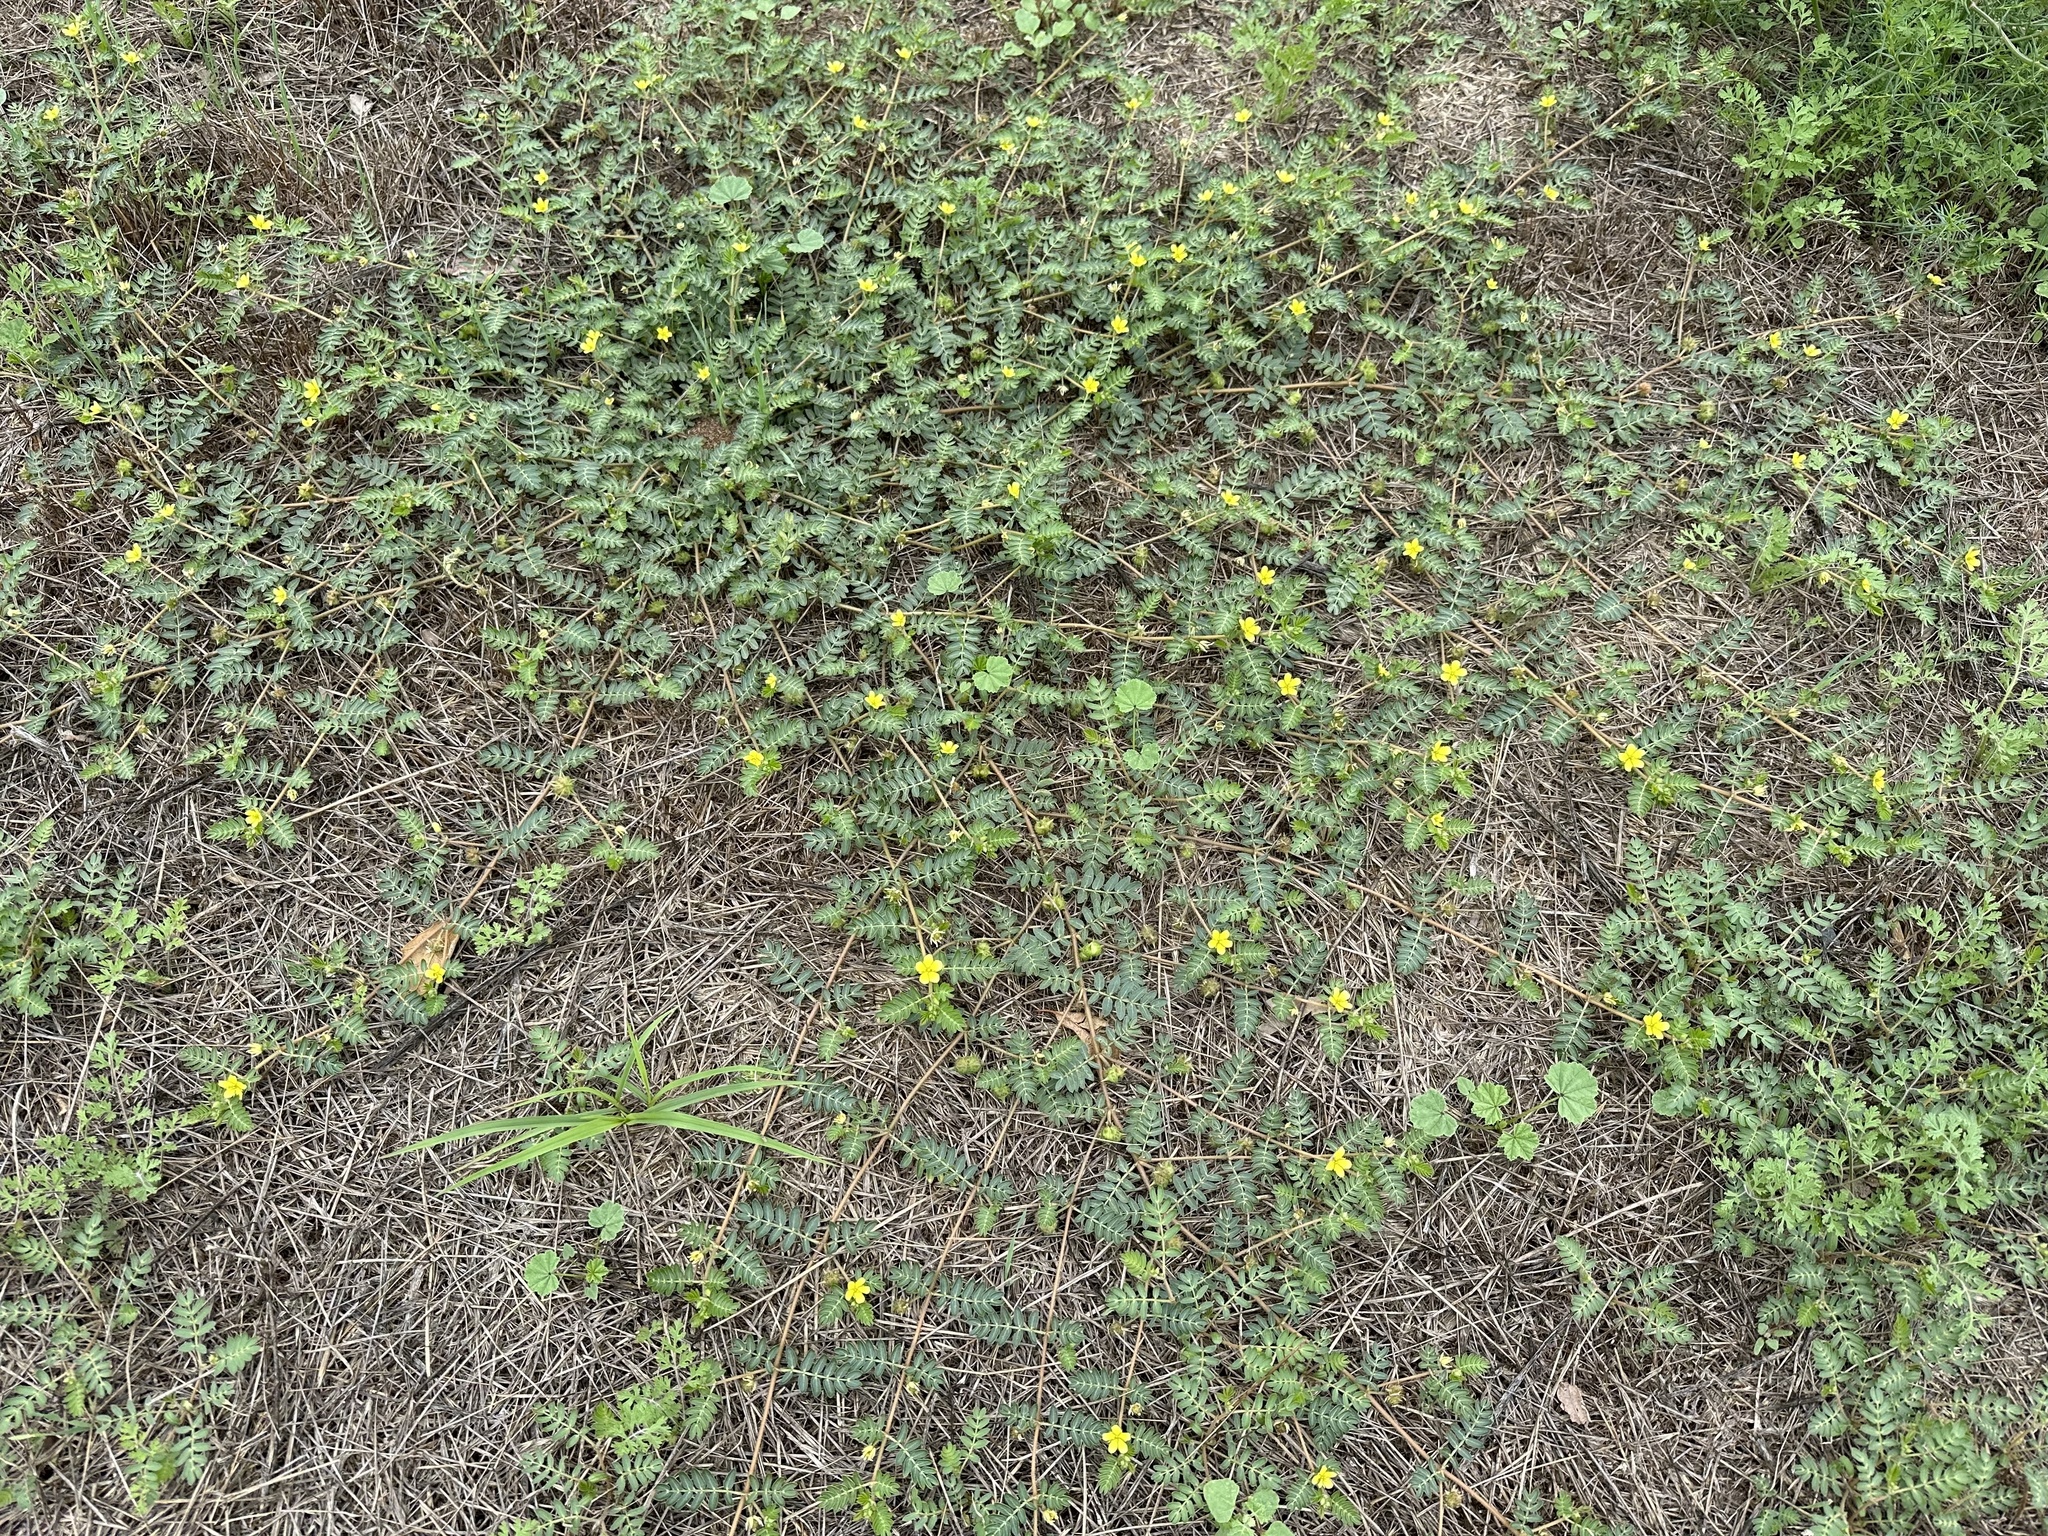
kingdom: Plantae
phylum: Tracheophyta
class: Magnoliopsida
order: Zygophyllales
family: Zygophyllaceae
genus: Tribulus
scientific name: Tribulus terrestris
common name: Puncturevine
